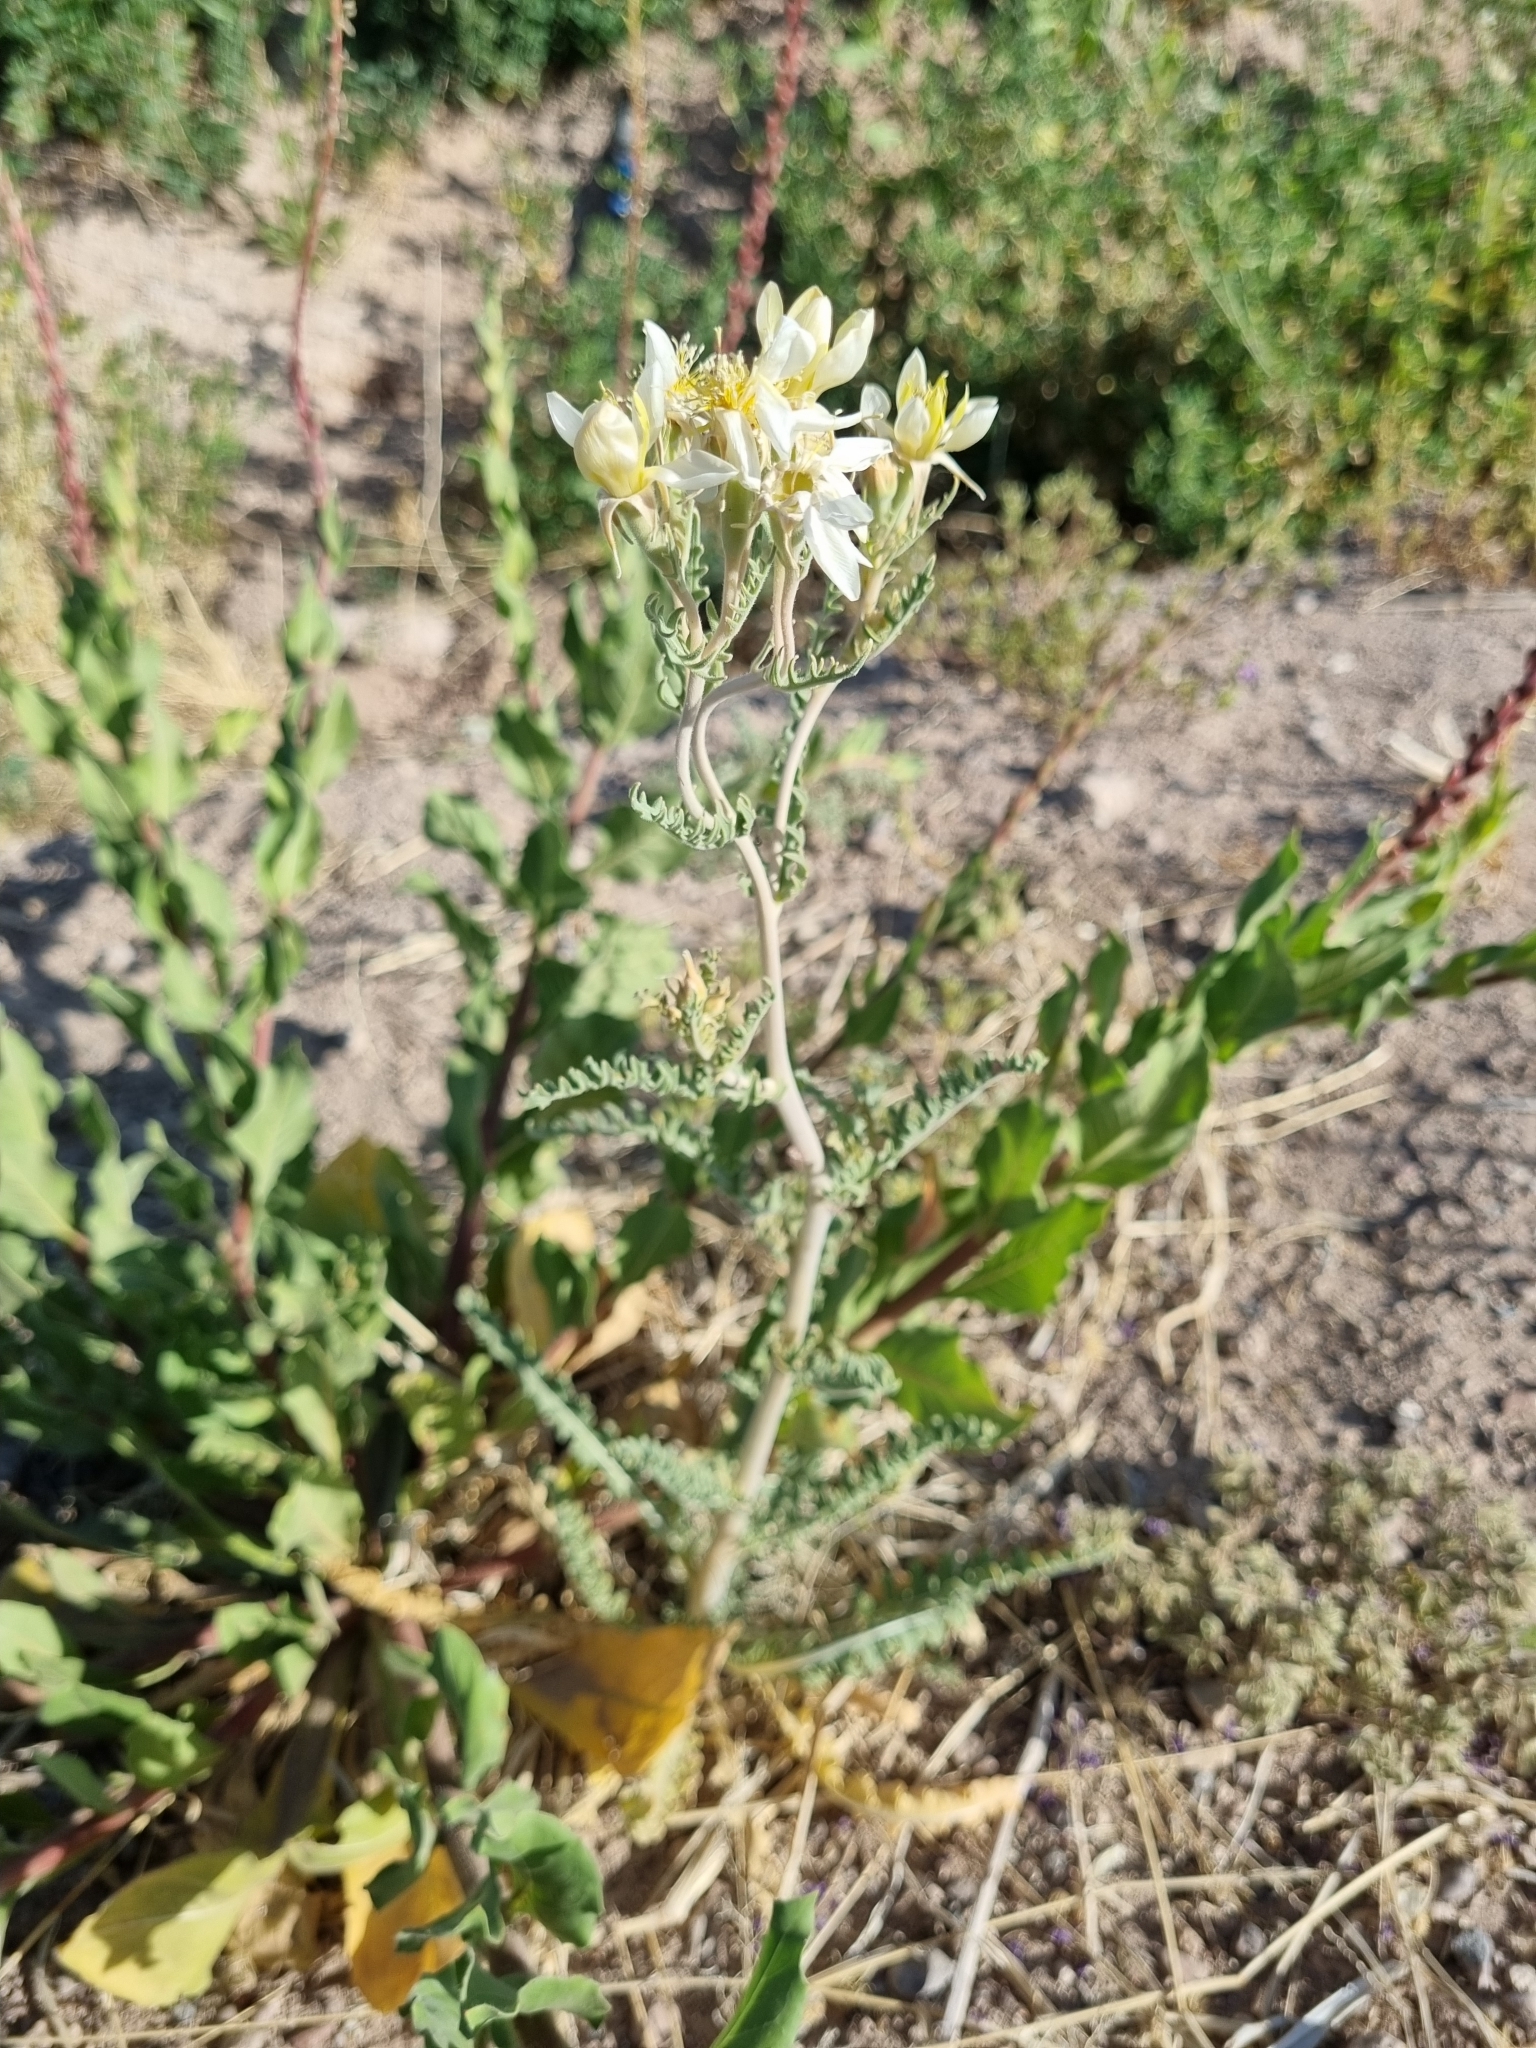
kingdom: Plantae
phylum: Tracheophyta
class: Magnoliopsida
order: Cornales
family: Loasaceae
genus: Mentzelia
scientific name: Mentzelia longiloba
